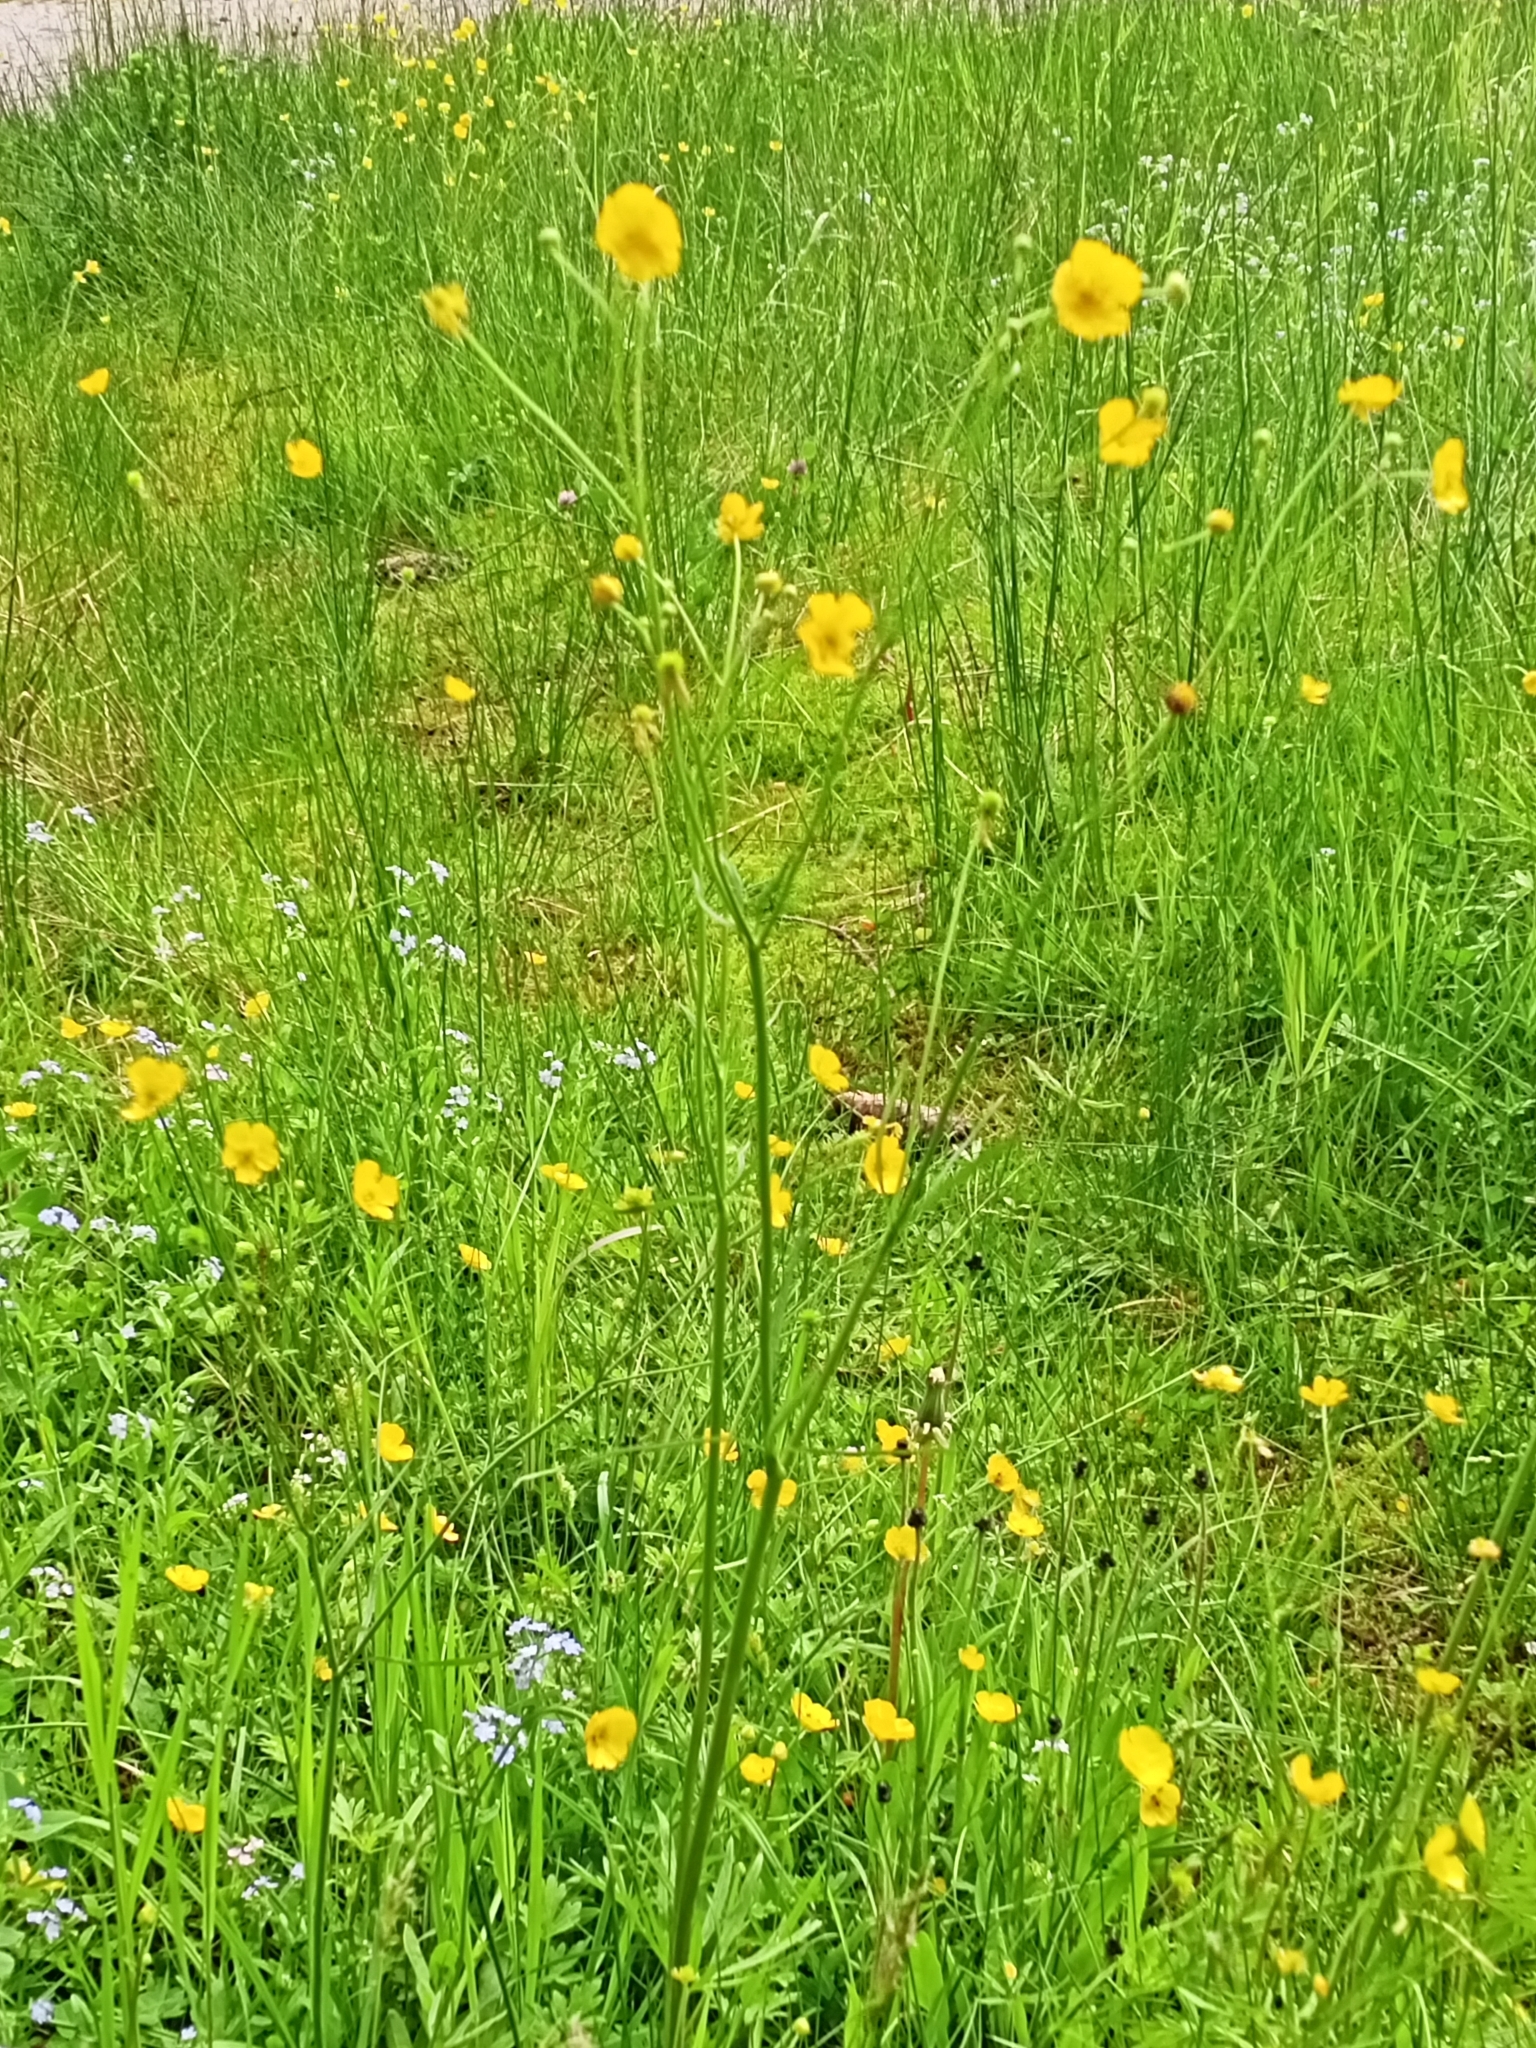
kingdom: Plantae
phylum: Tracheophyta
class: Magnoliopsida
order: Ranunculales
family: Ranunculaceae
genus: Ranunculus
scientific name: Ranunculus acris
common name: Meadow buttercup
